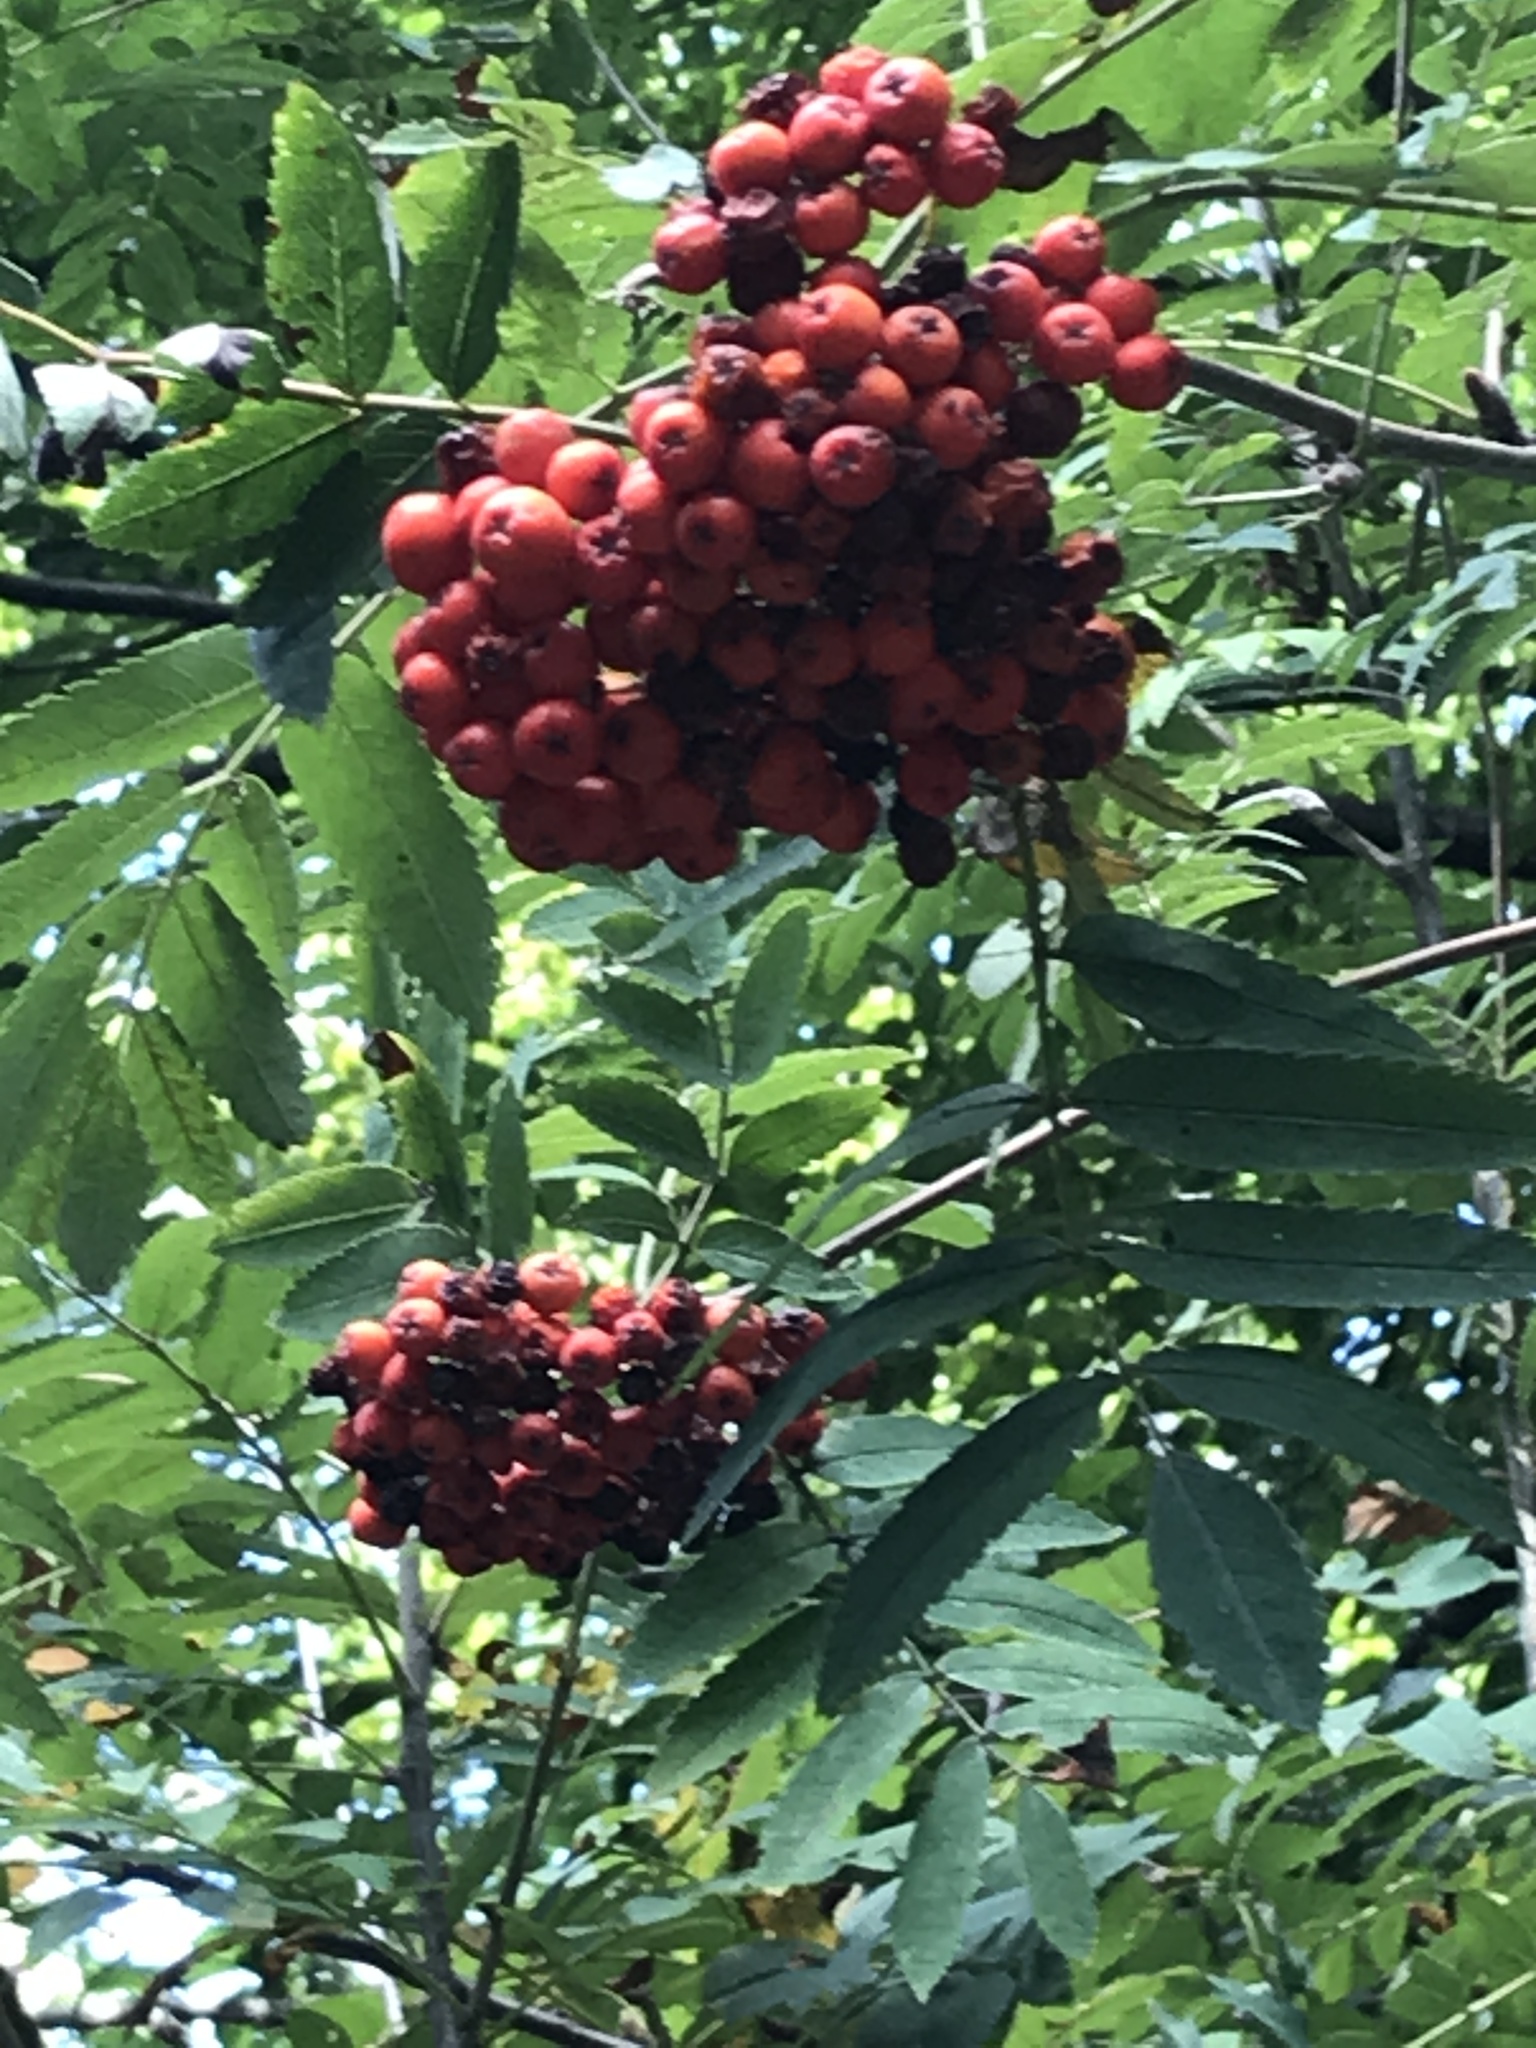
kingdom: Plantae
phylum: Tracheophyta
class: Magnoliopsida
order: Rosales
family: Rosaceae
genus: Sorbus
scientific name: Sorbus aucuparia
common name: Rowan
